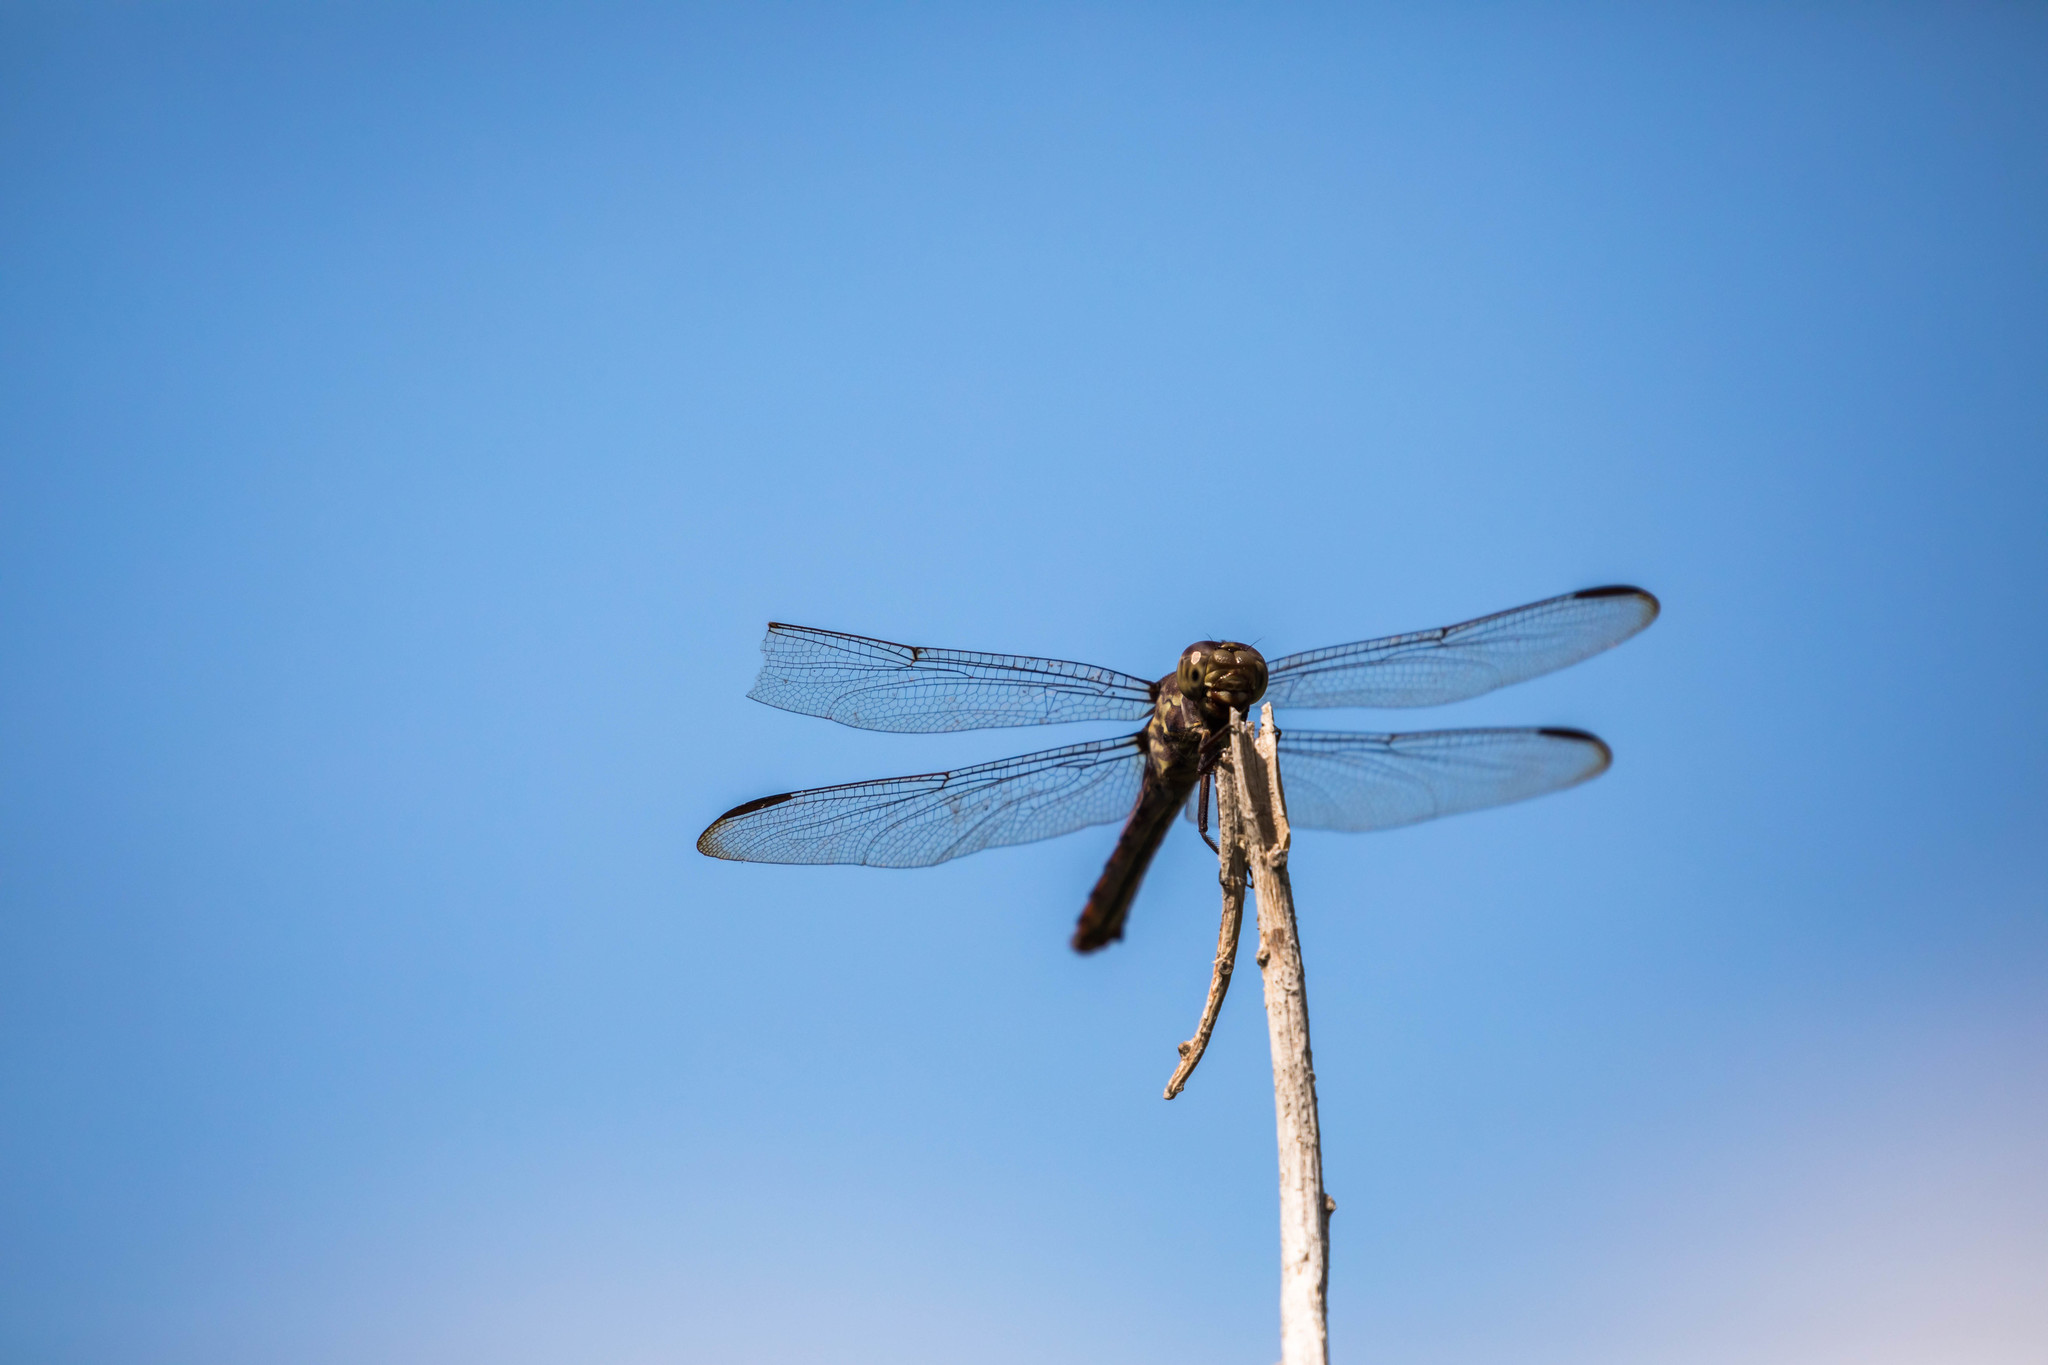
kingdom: Animalia
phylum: Arthropoda
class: Insecta
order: Odonata
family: Libellulidae
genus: Orthemis
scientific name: Orthemis ferruginea
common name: Roseate skimmer
